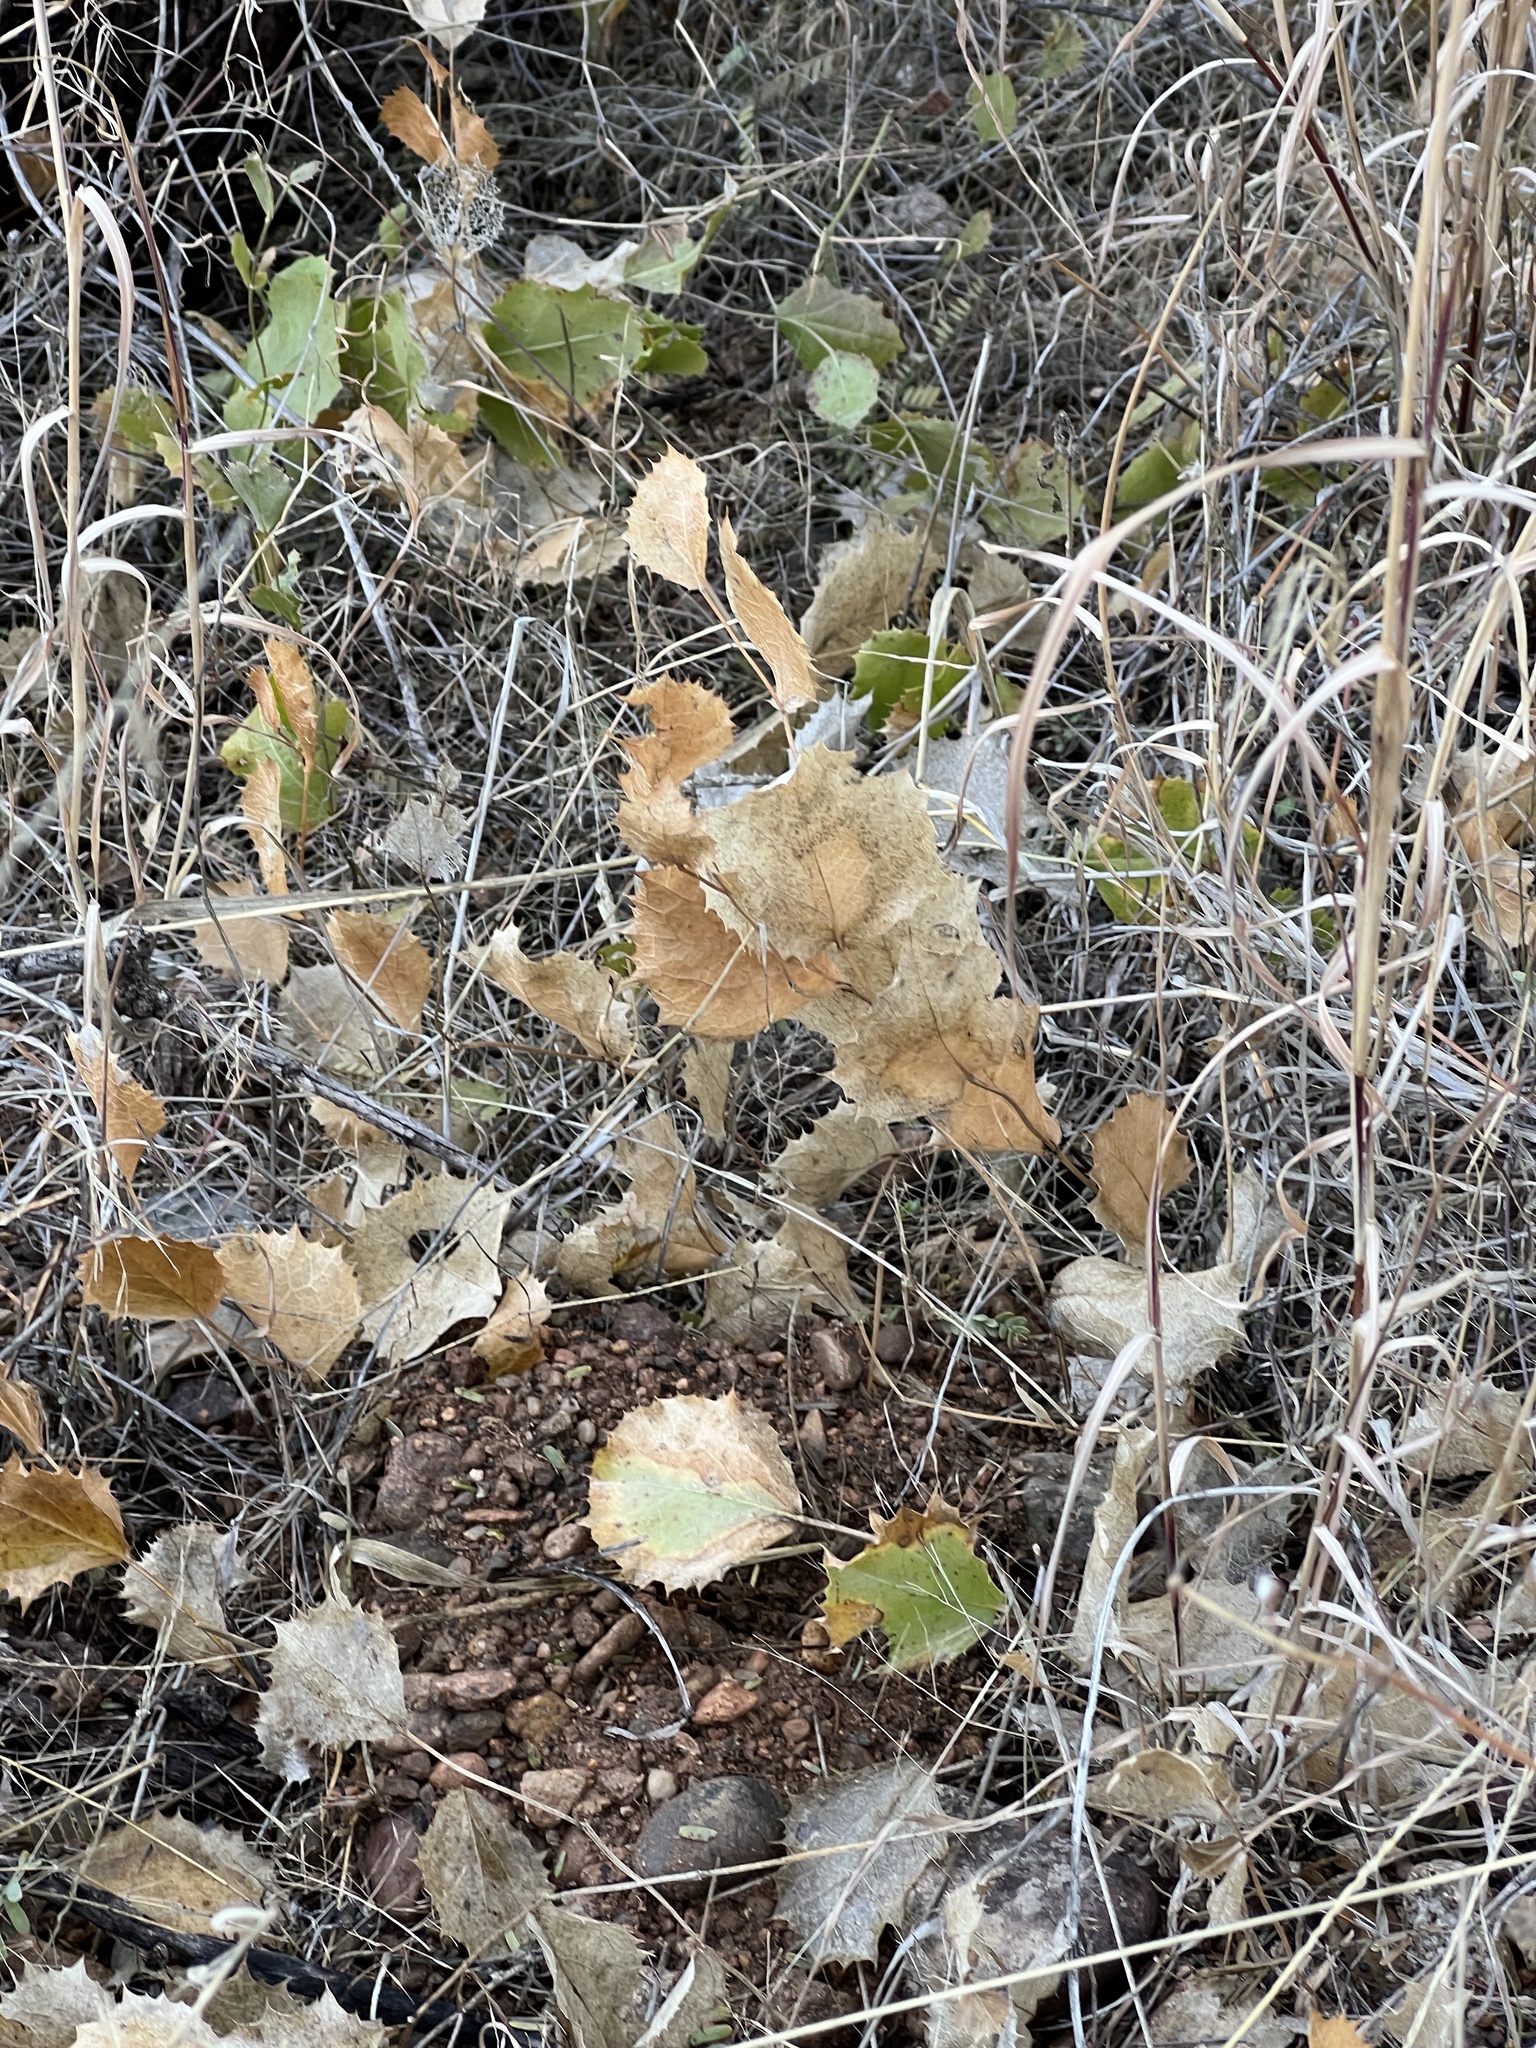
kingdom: Plantae
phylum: Tracheophyta
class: Magnoliopsida
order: Asterales
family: Asteraceae
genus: Acourtia
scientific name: Acourtia nana
